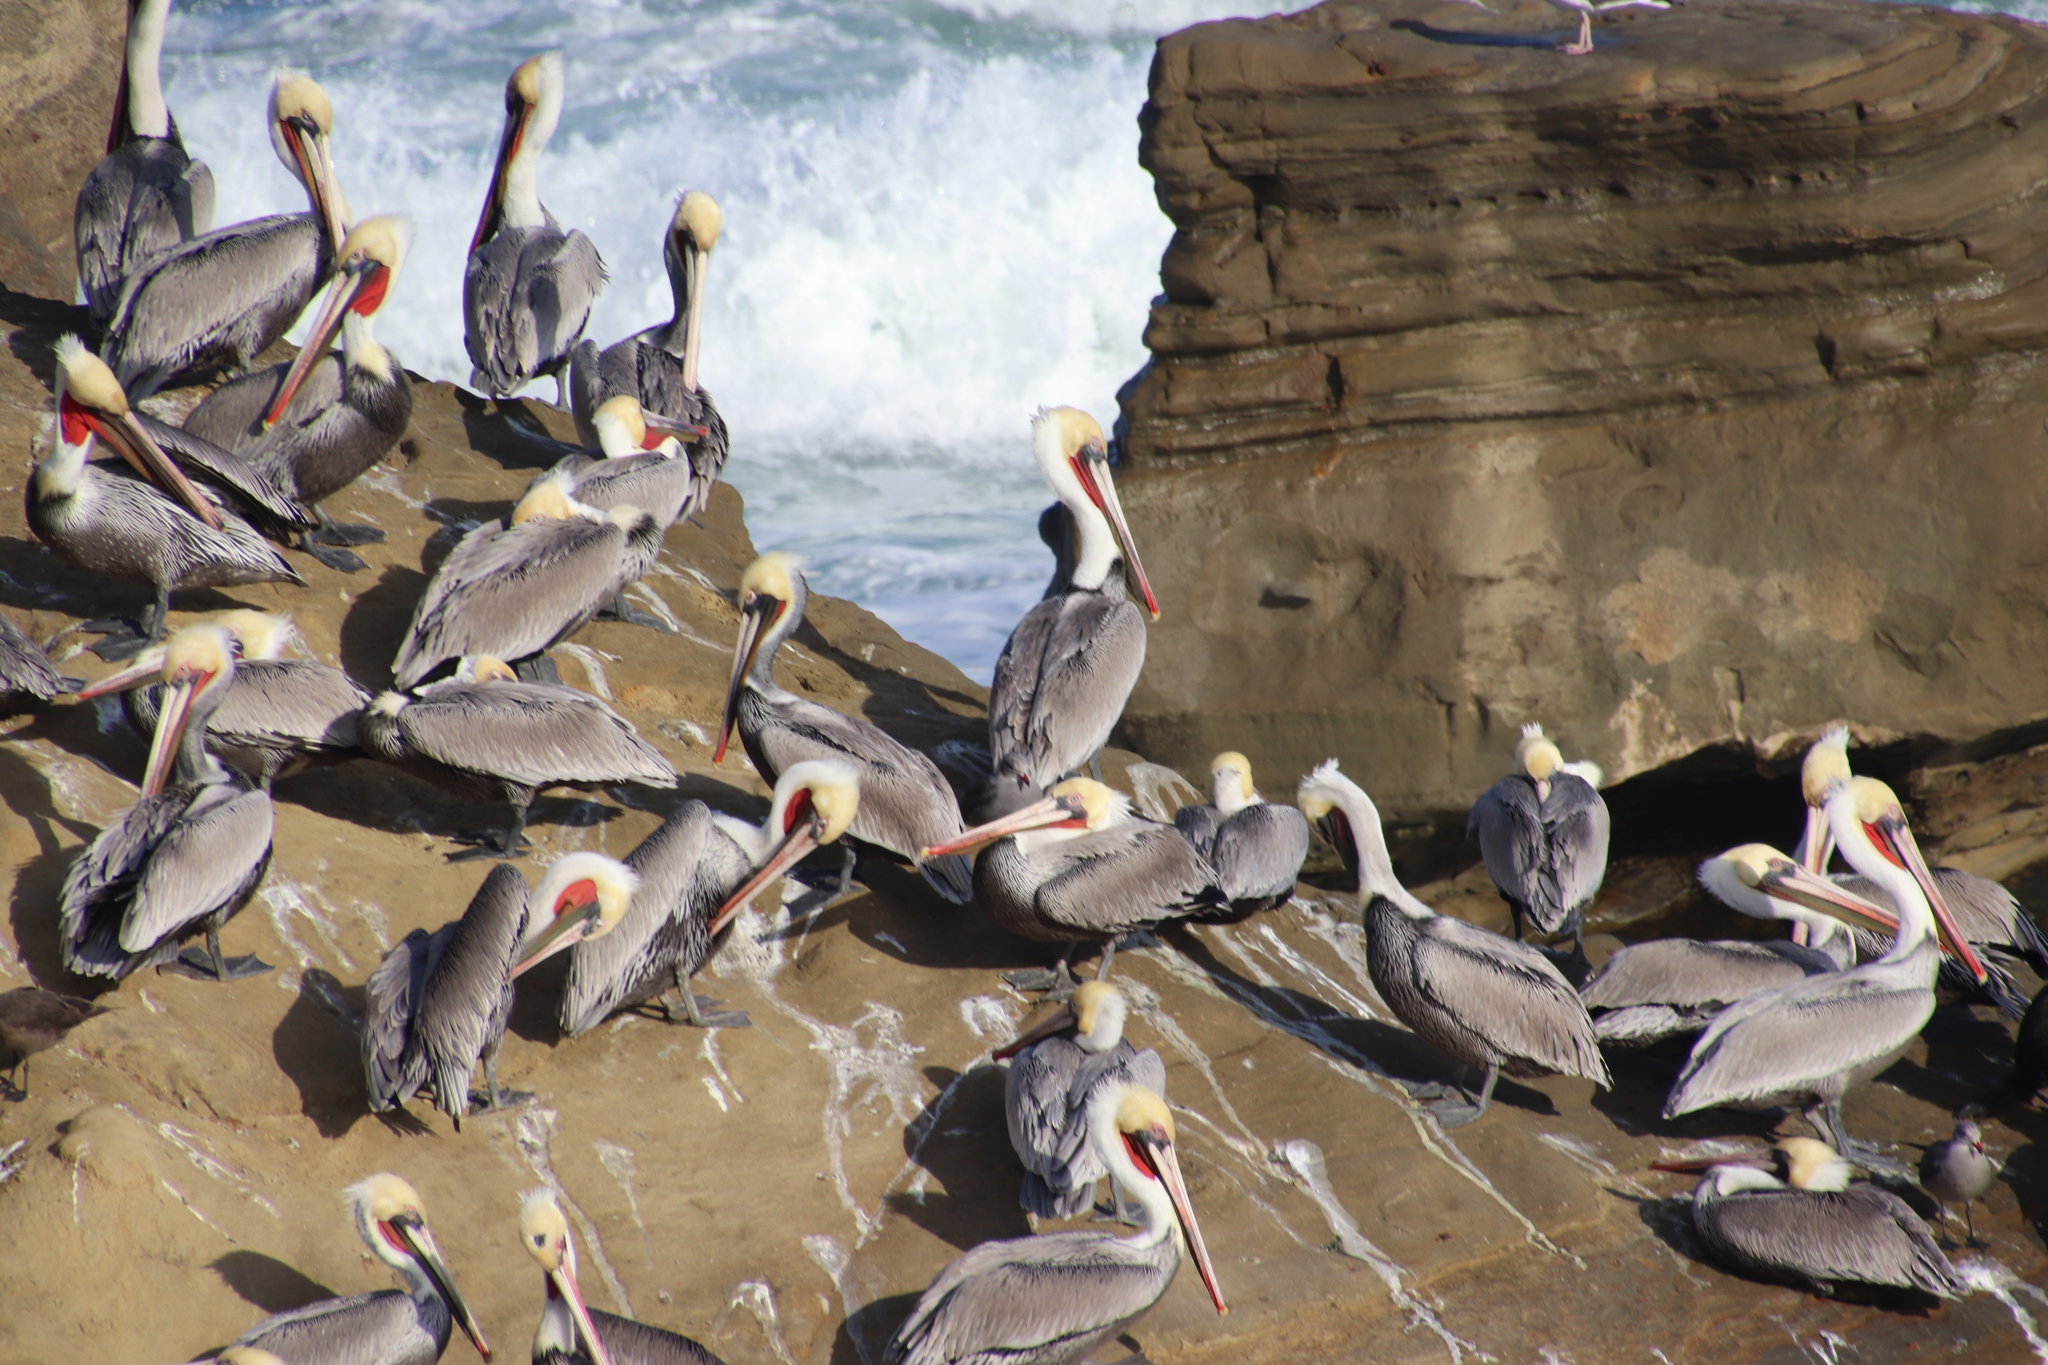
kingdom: Animalia
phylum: Chordata
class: Aves
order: Pelecaniformes
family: Pelecanidae
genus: Pelecanus
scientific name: Pelecanus occidentalis
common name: Brown pelican
